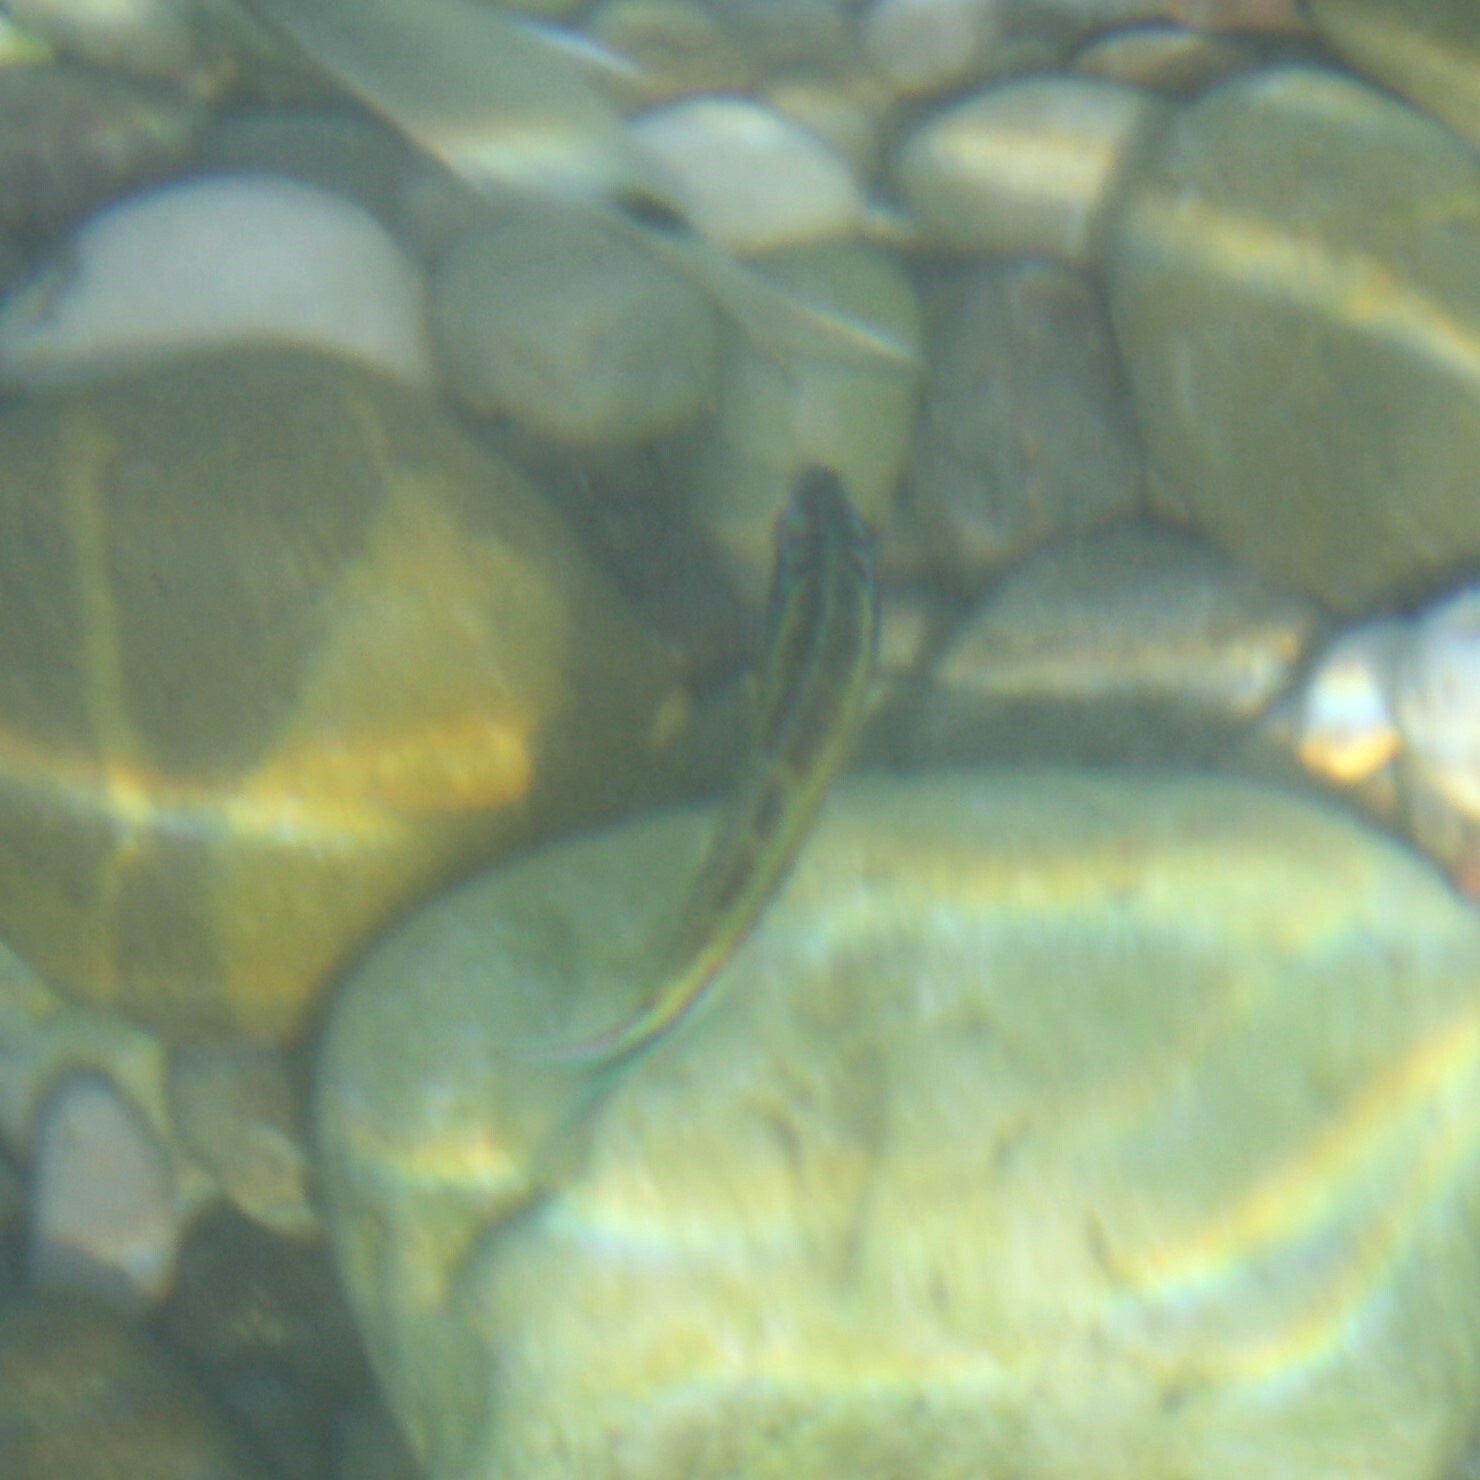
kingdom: Animalia
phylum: Chordata
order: Perciformes
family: Labridae
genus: Thalassoma
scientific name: Thalassoma pavo
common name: Ornate wrasse
